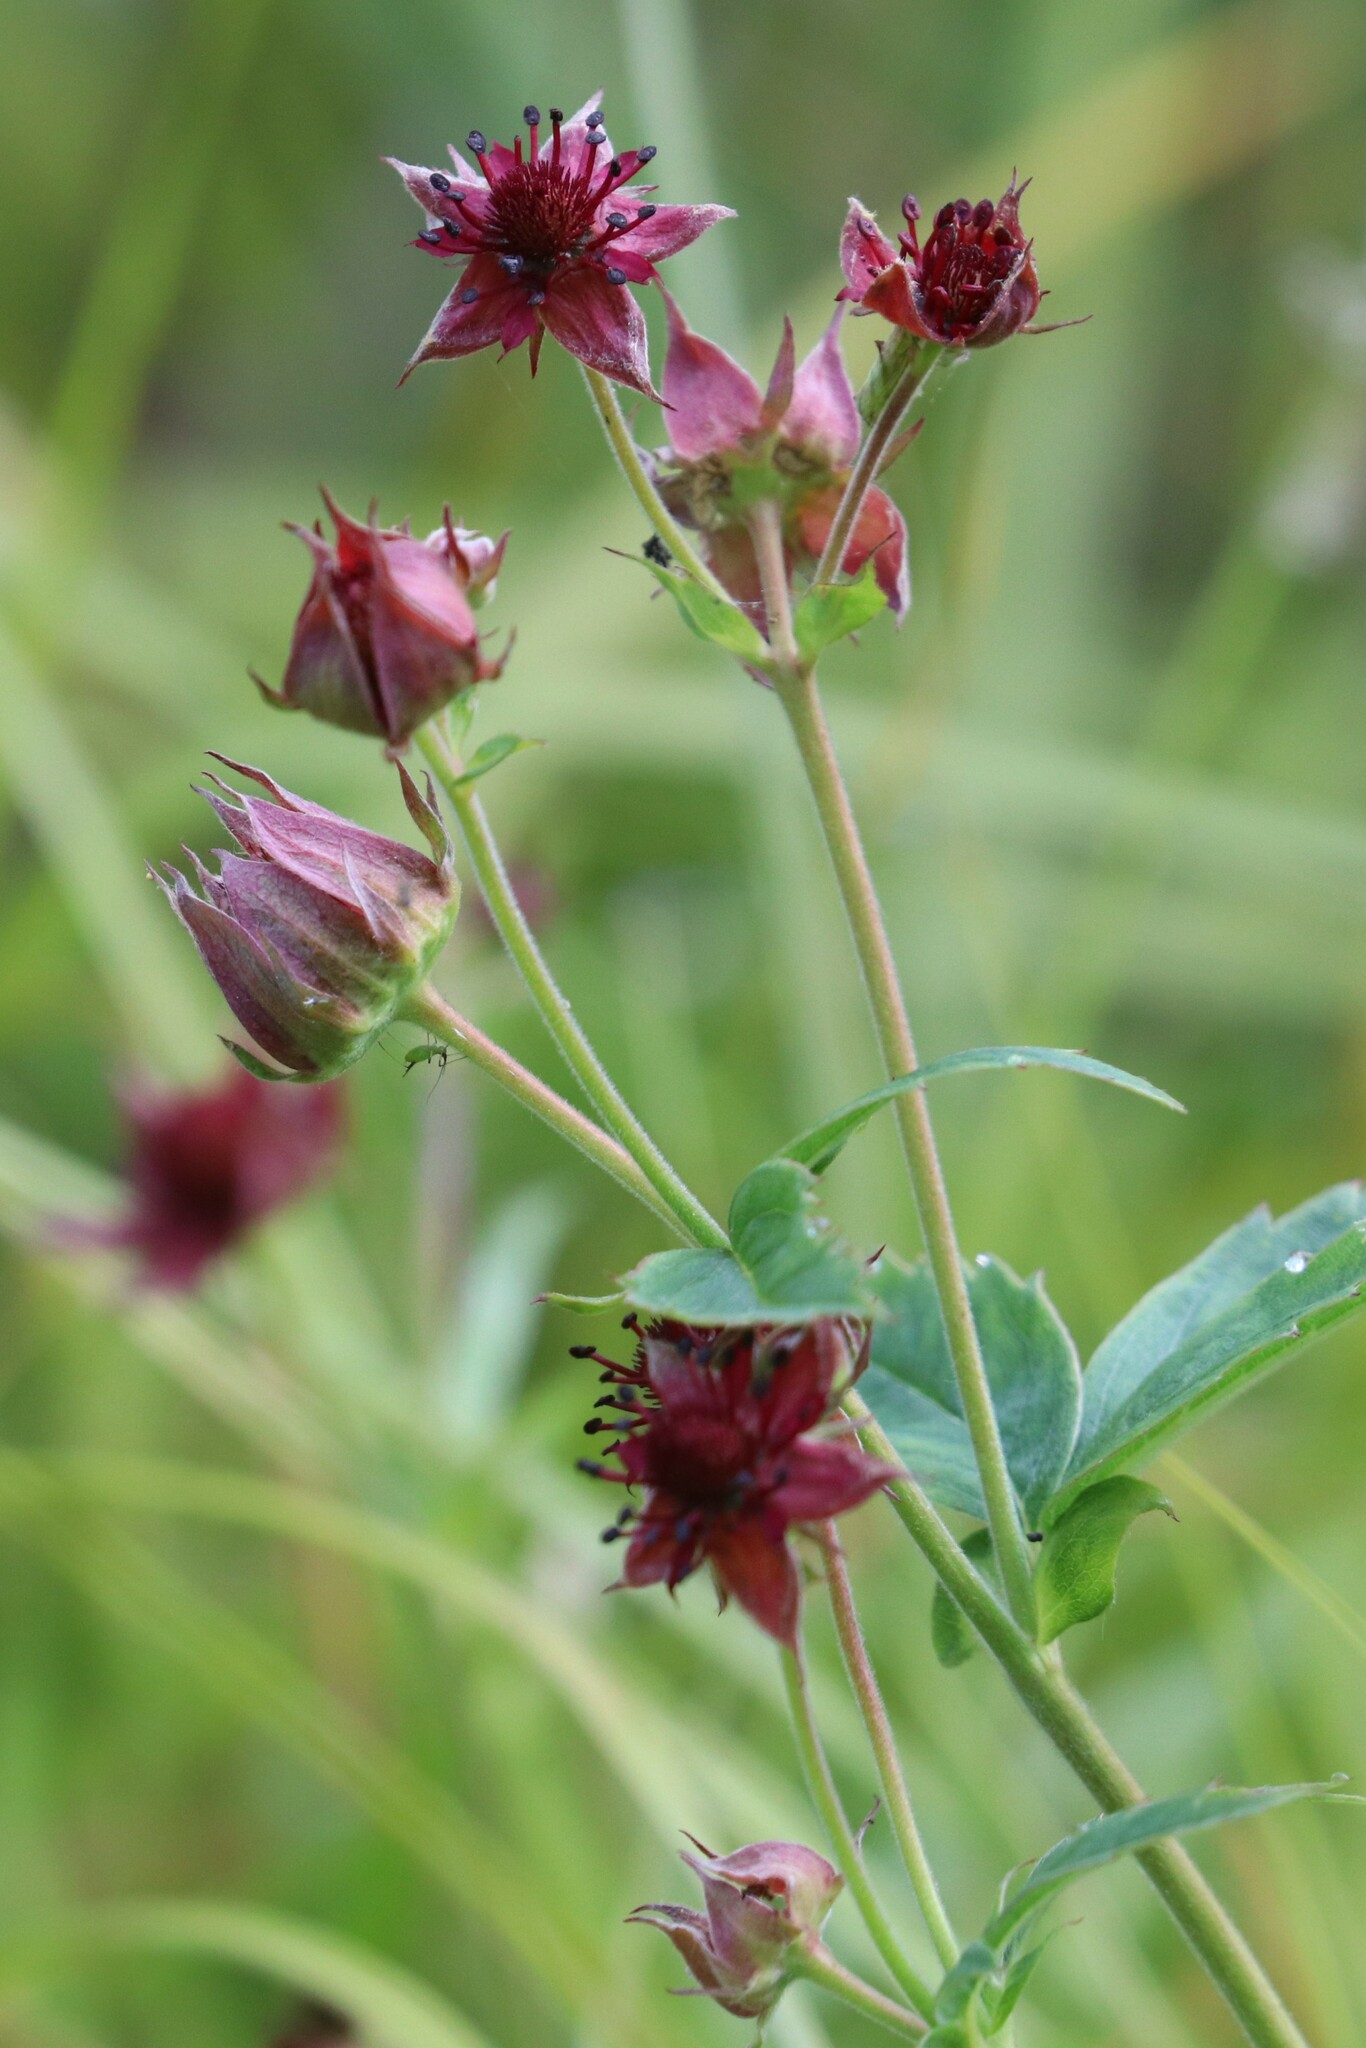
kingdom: Plantae
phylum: Tracheophyta
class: Magnoliopsida
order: Rosales
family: Rosaceae
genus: Comarum
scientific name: Comarum palustre
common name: Marsh cinquefoil
